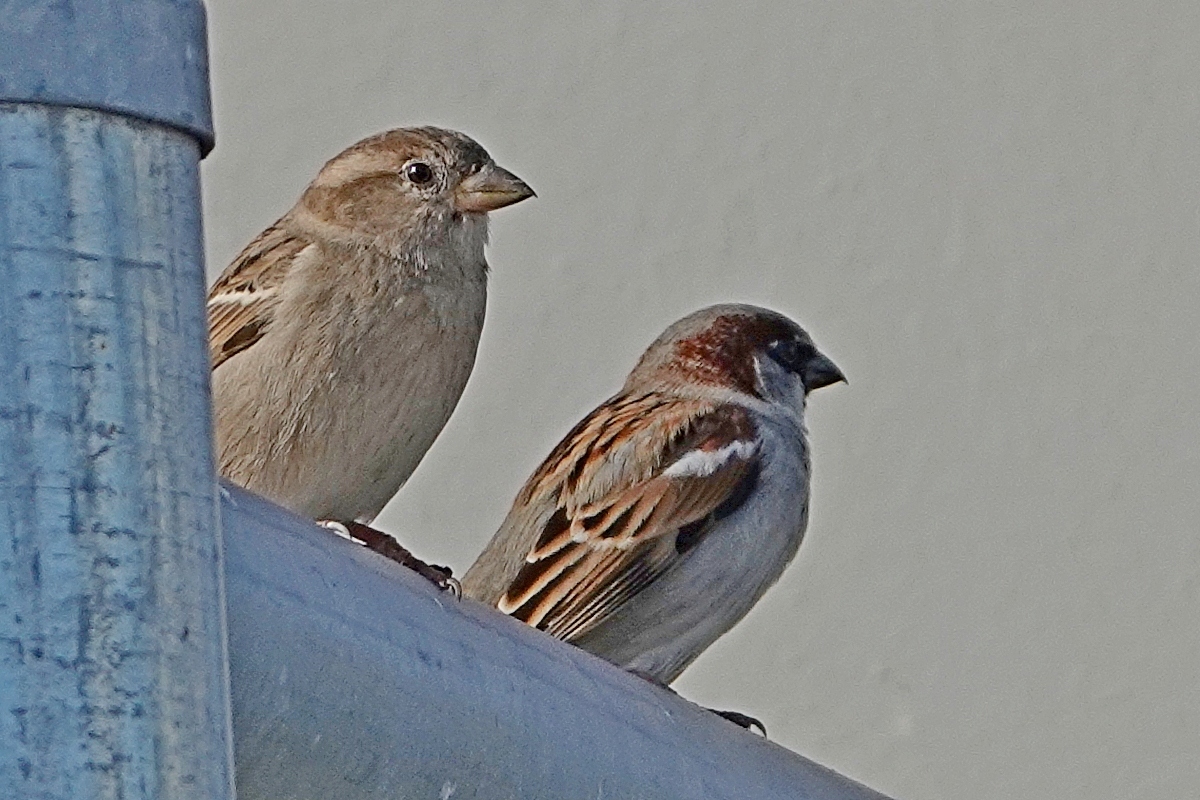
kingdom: Animalia
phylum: Chordata
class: Aves
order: Passeriformes
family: Passeridae
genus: Passer
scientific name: Passer domesticus
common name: House sparrow
